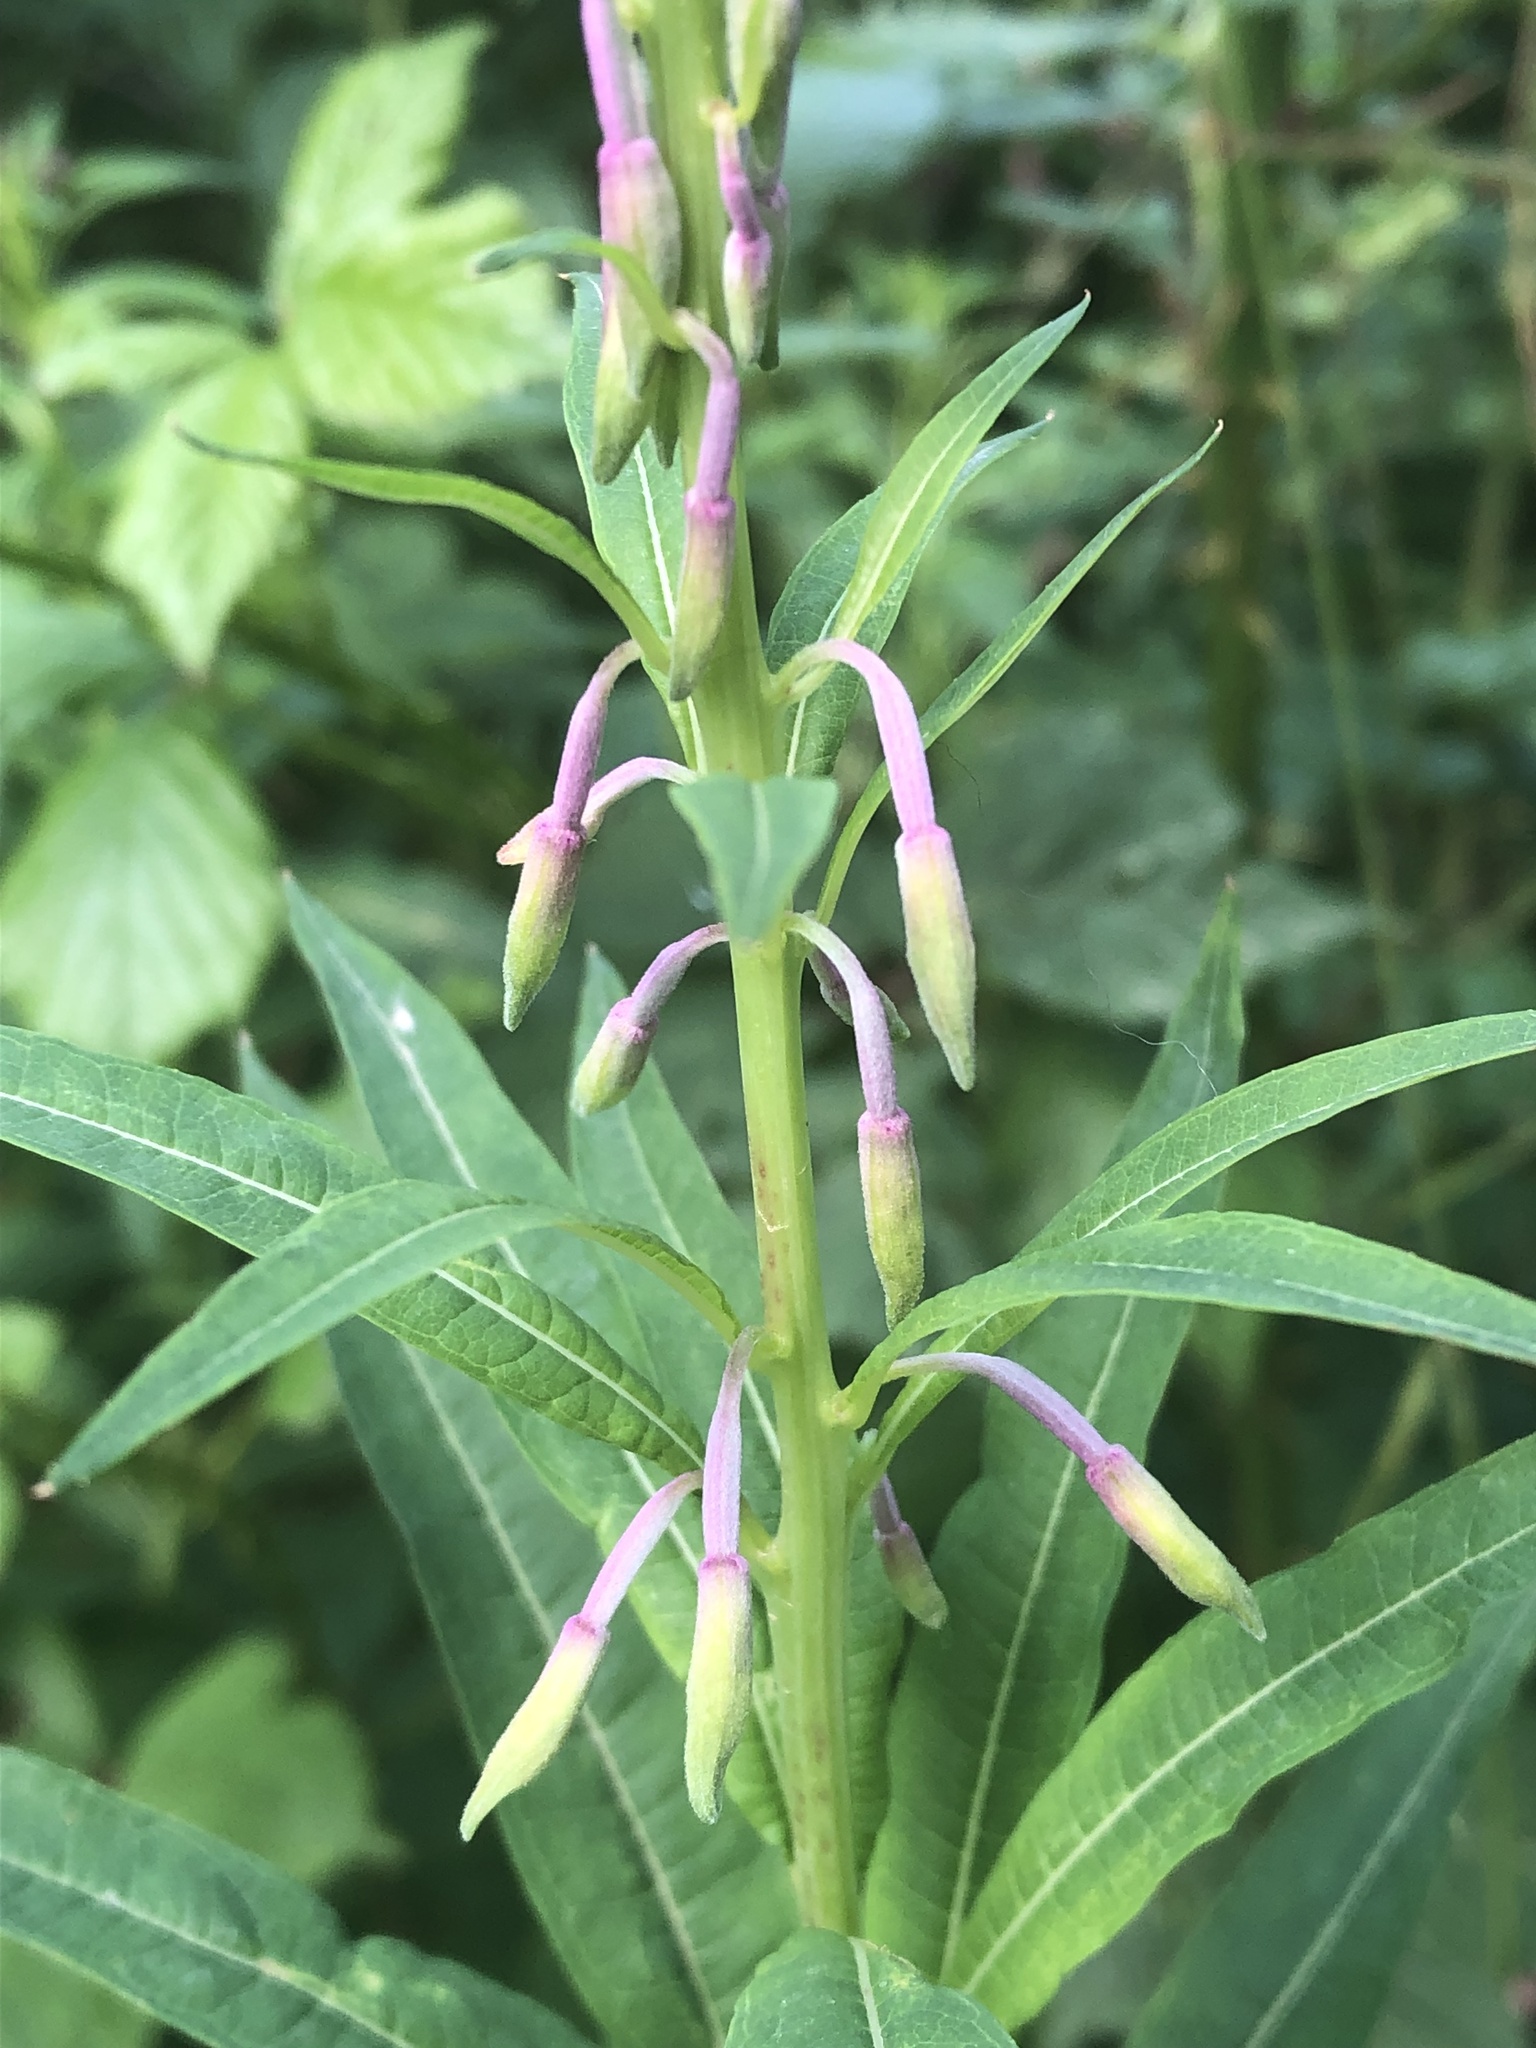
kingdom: Plantae
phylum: Tracheophyta
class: Magnoliopsida
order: Myrtales
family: Onagraceae
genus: Chamaenerion
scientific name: Chamaenerion angustifolium
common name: Fireweed
